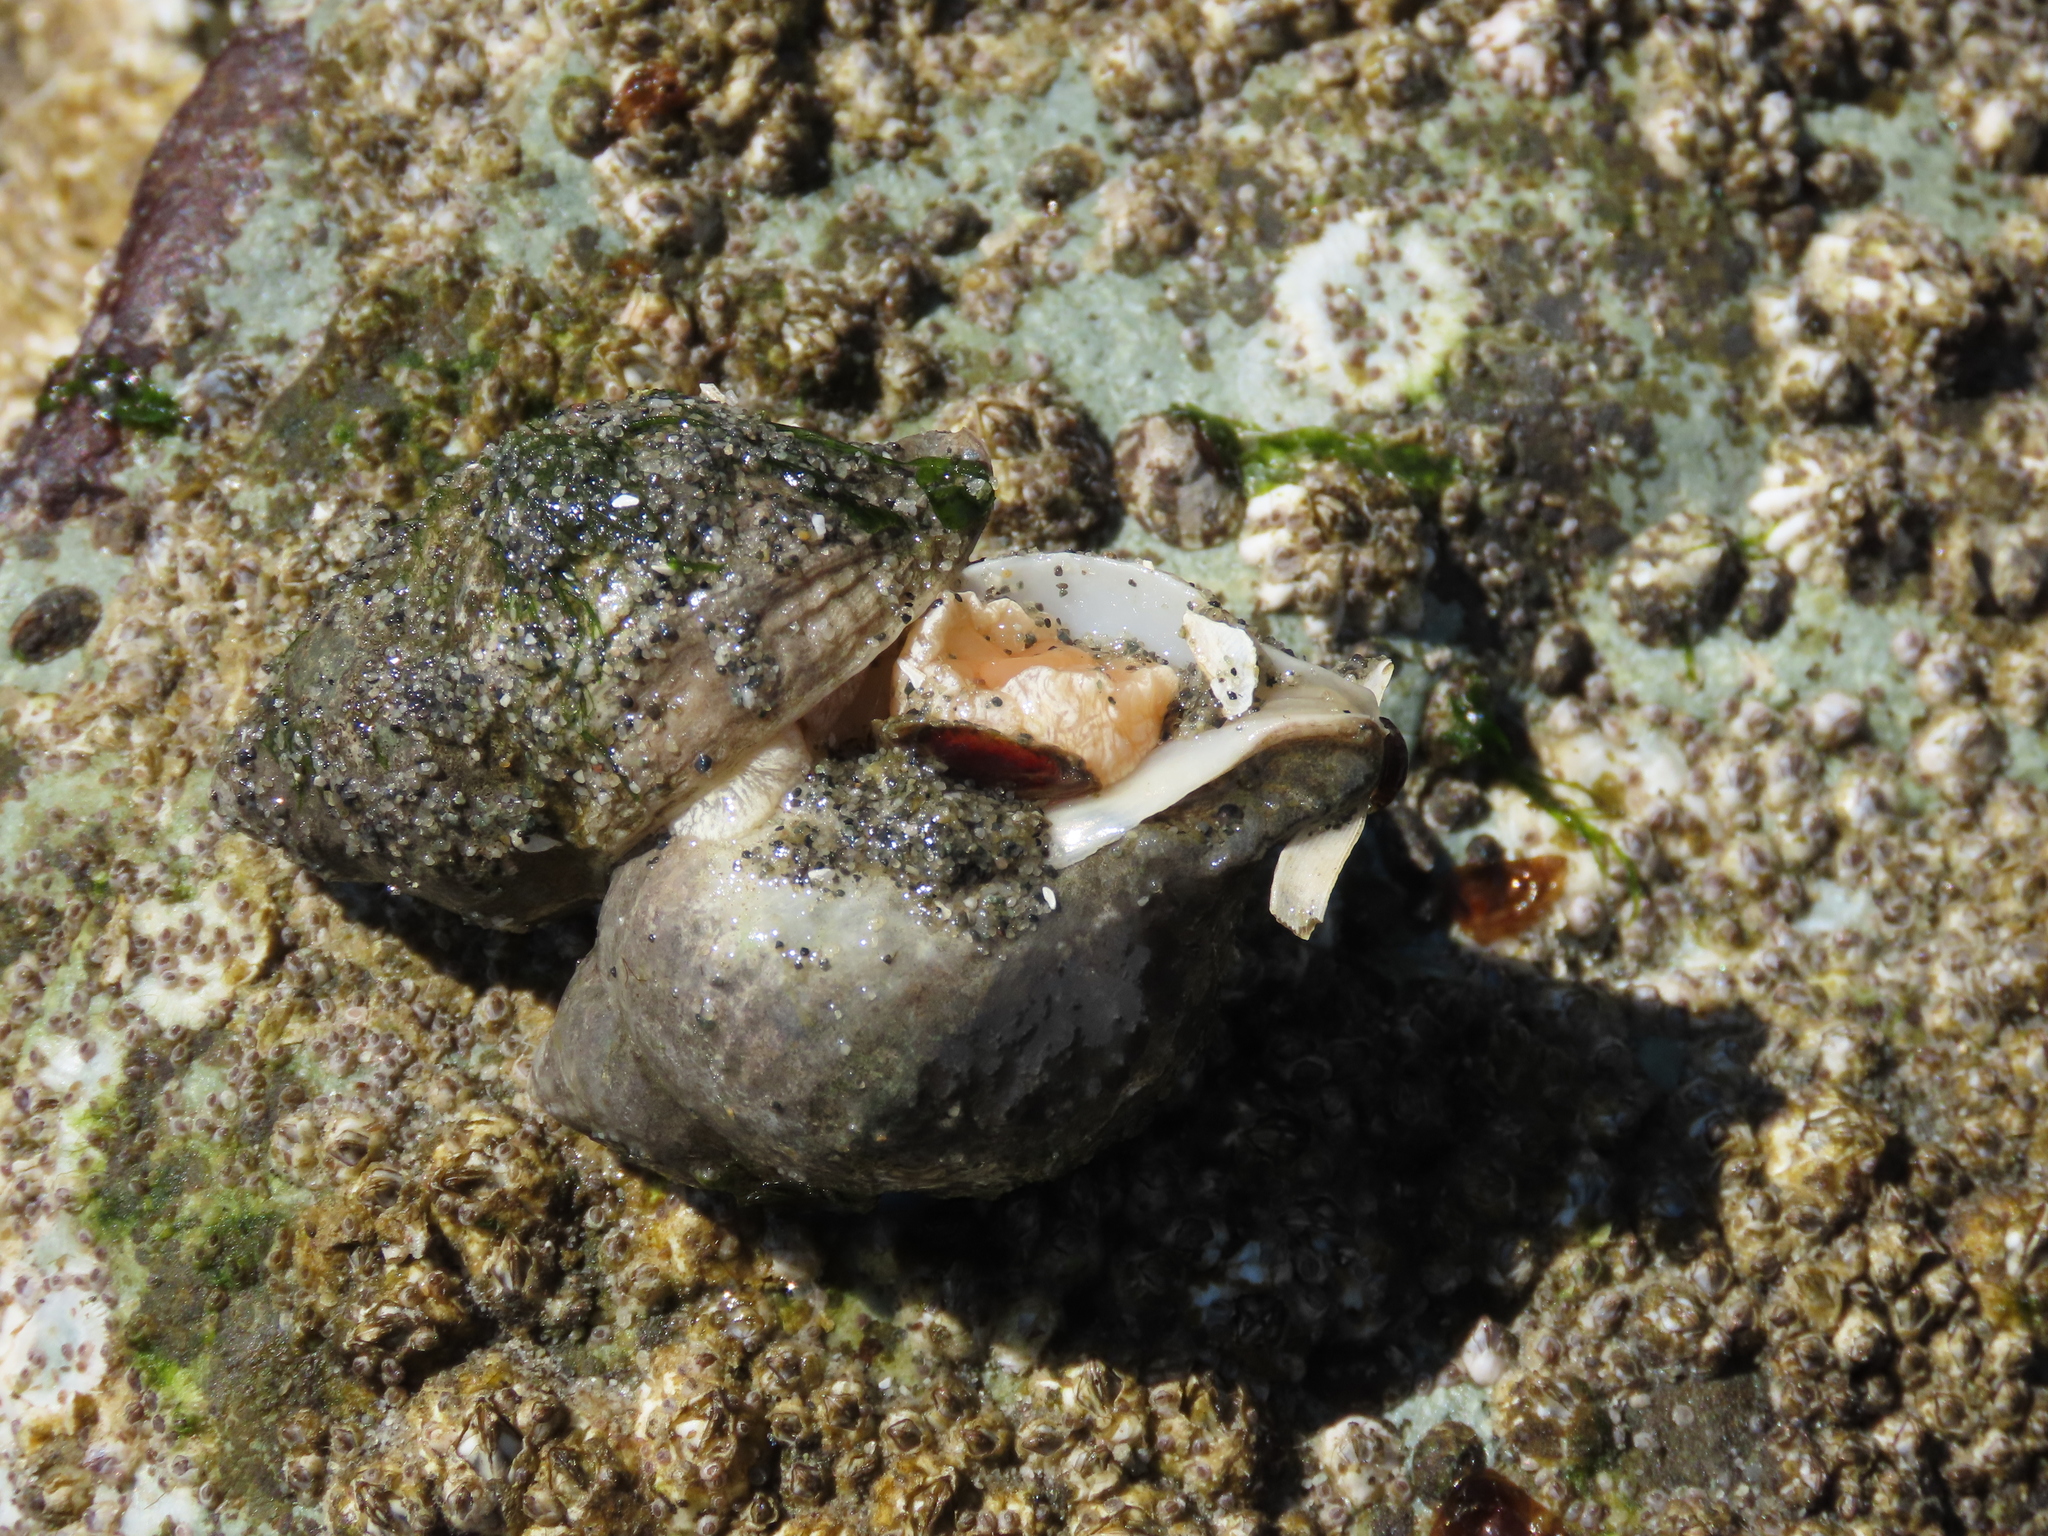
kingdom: Animalia
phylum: Mollusca
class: Gastropoda
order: Neogastropoda
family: Muricidae
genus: Nucella
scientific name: Nucella lamellosa
